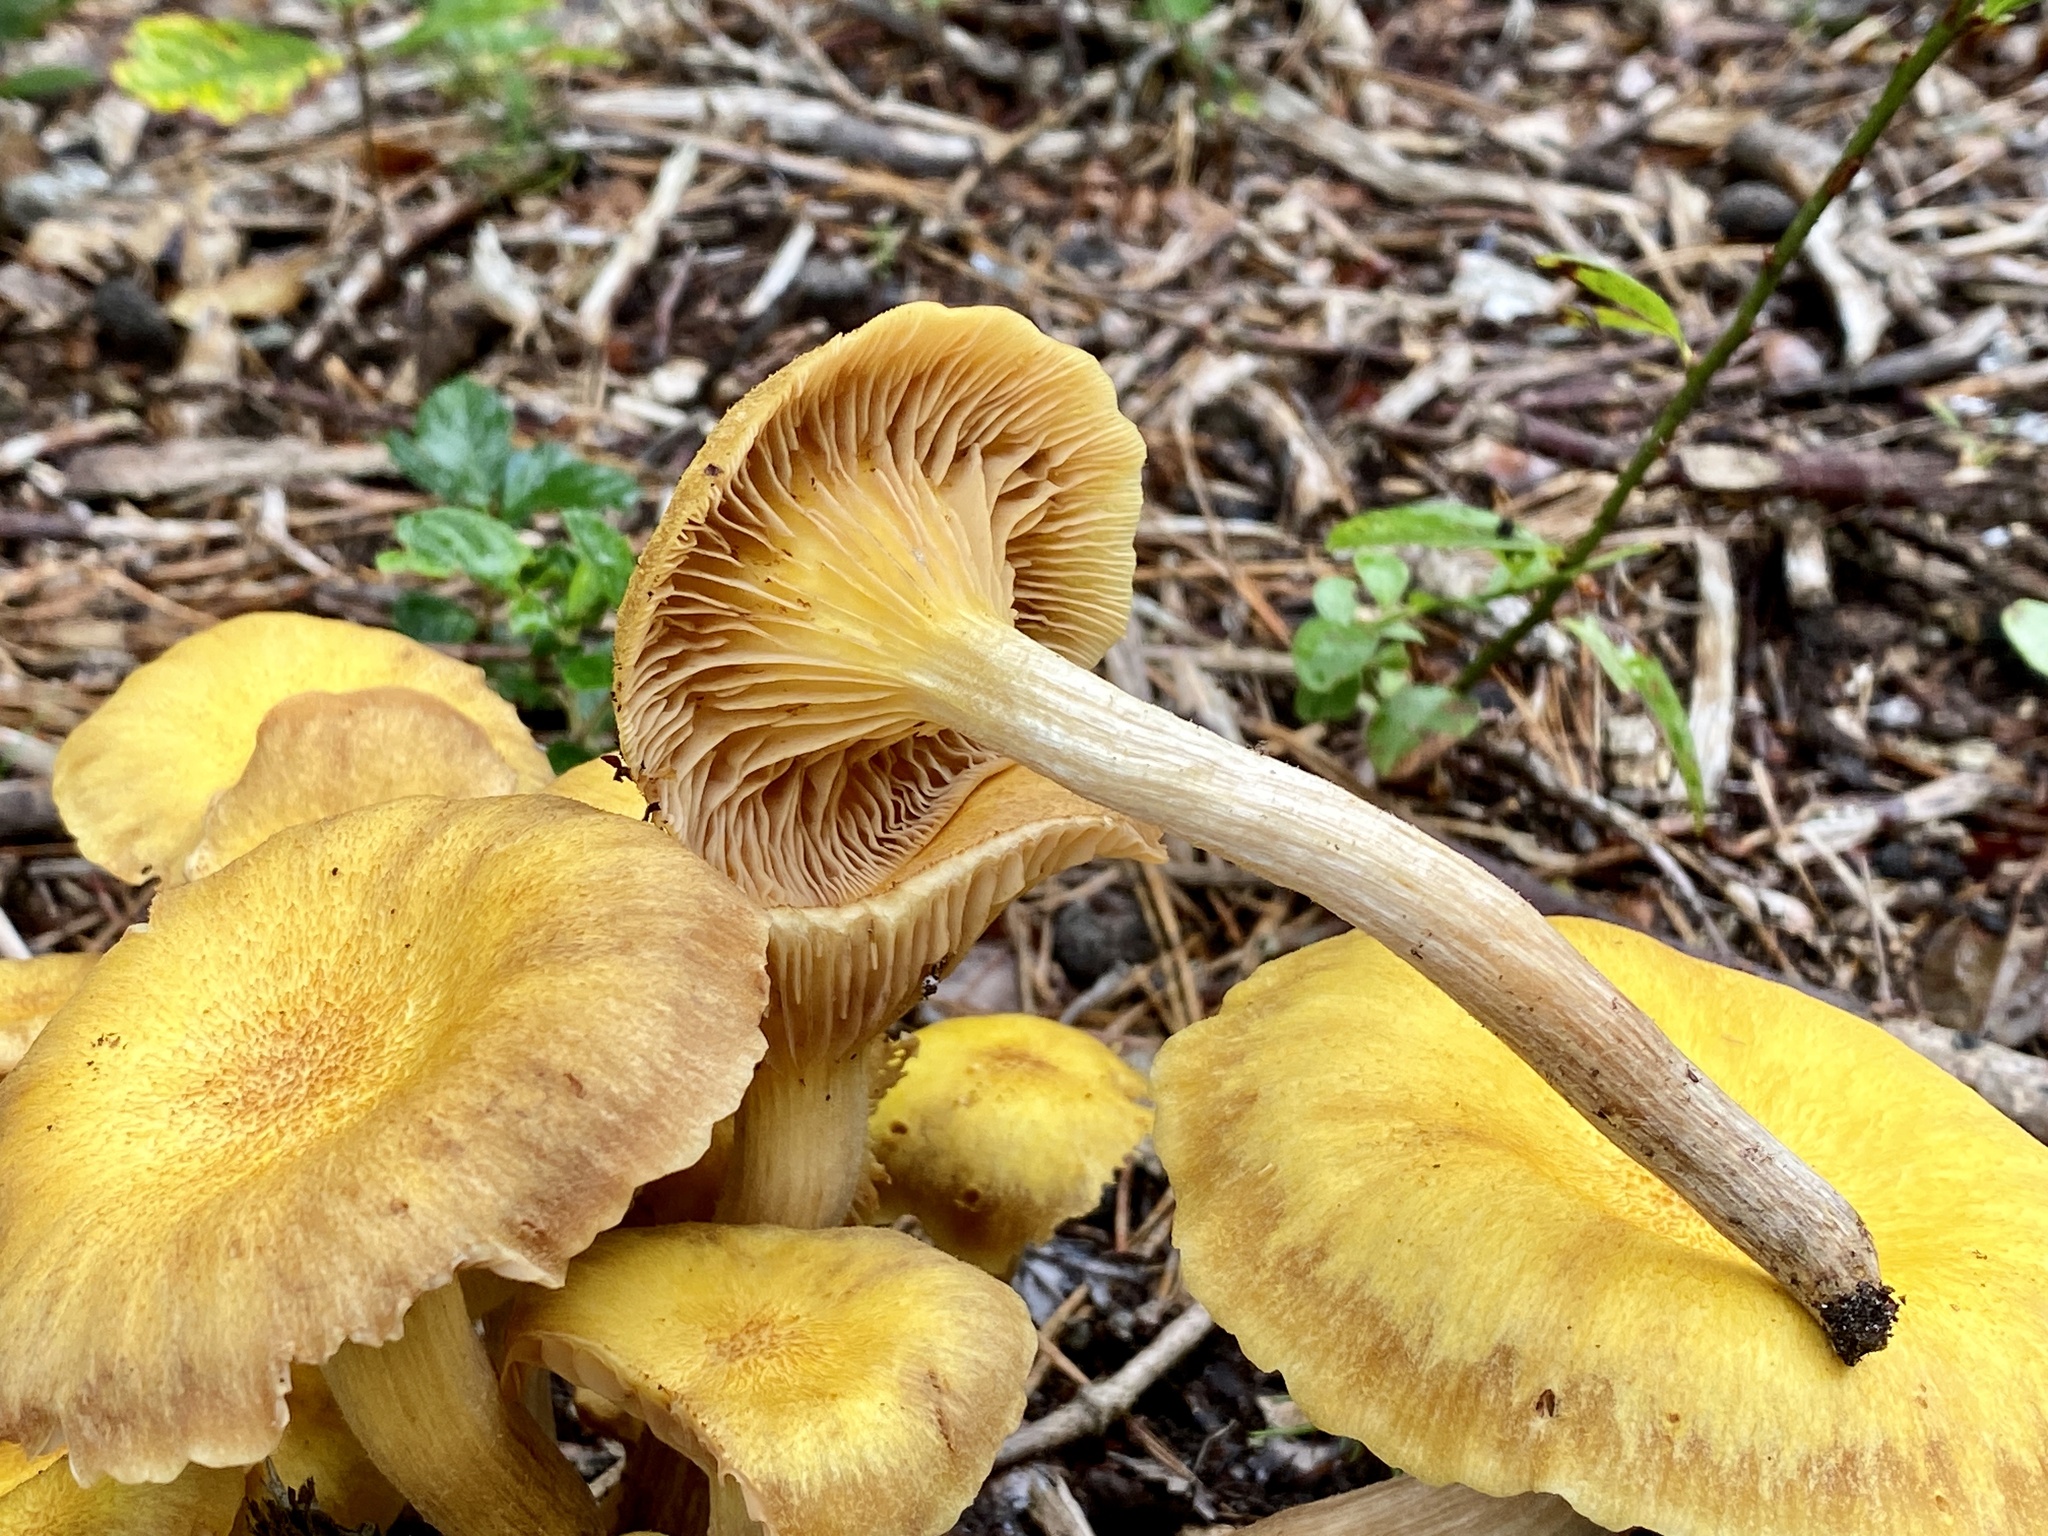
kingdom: Fungi
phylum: Basidiomycota
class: Agaricomycetes
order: Agaricales
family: Marasmiaceae
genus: Gerronema
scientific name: Gerronema strombodes
